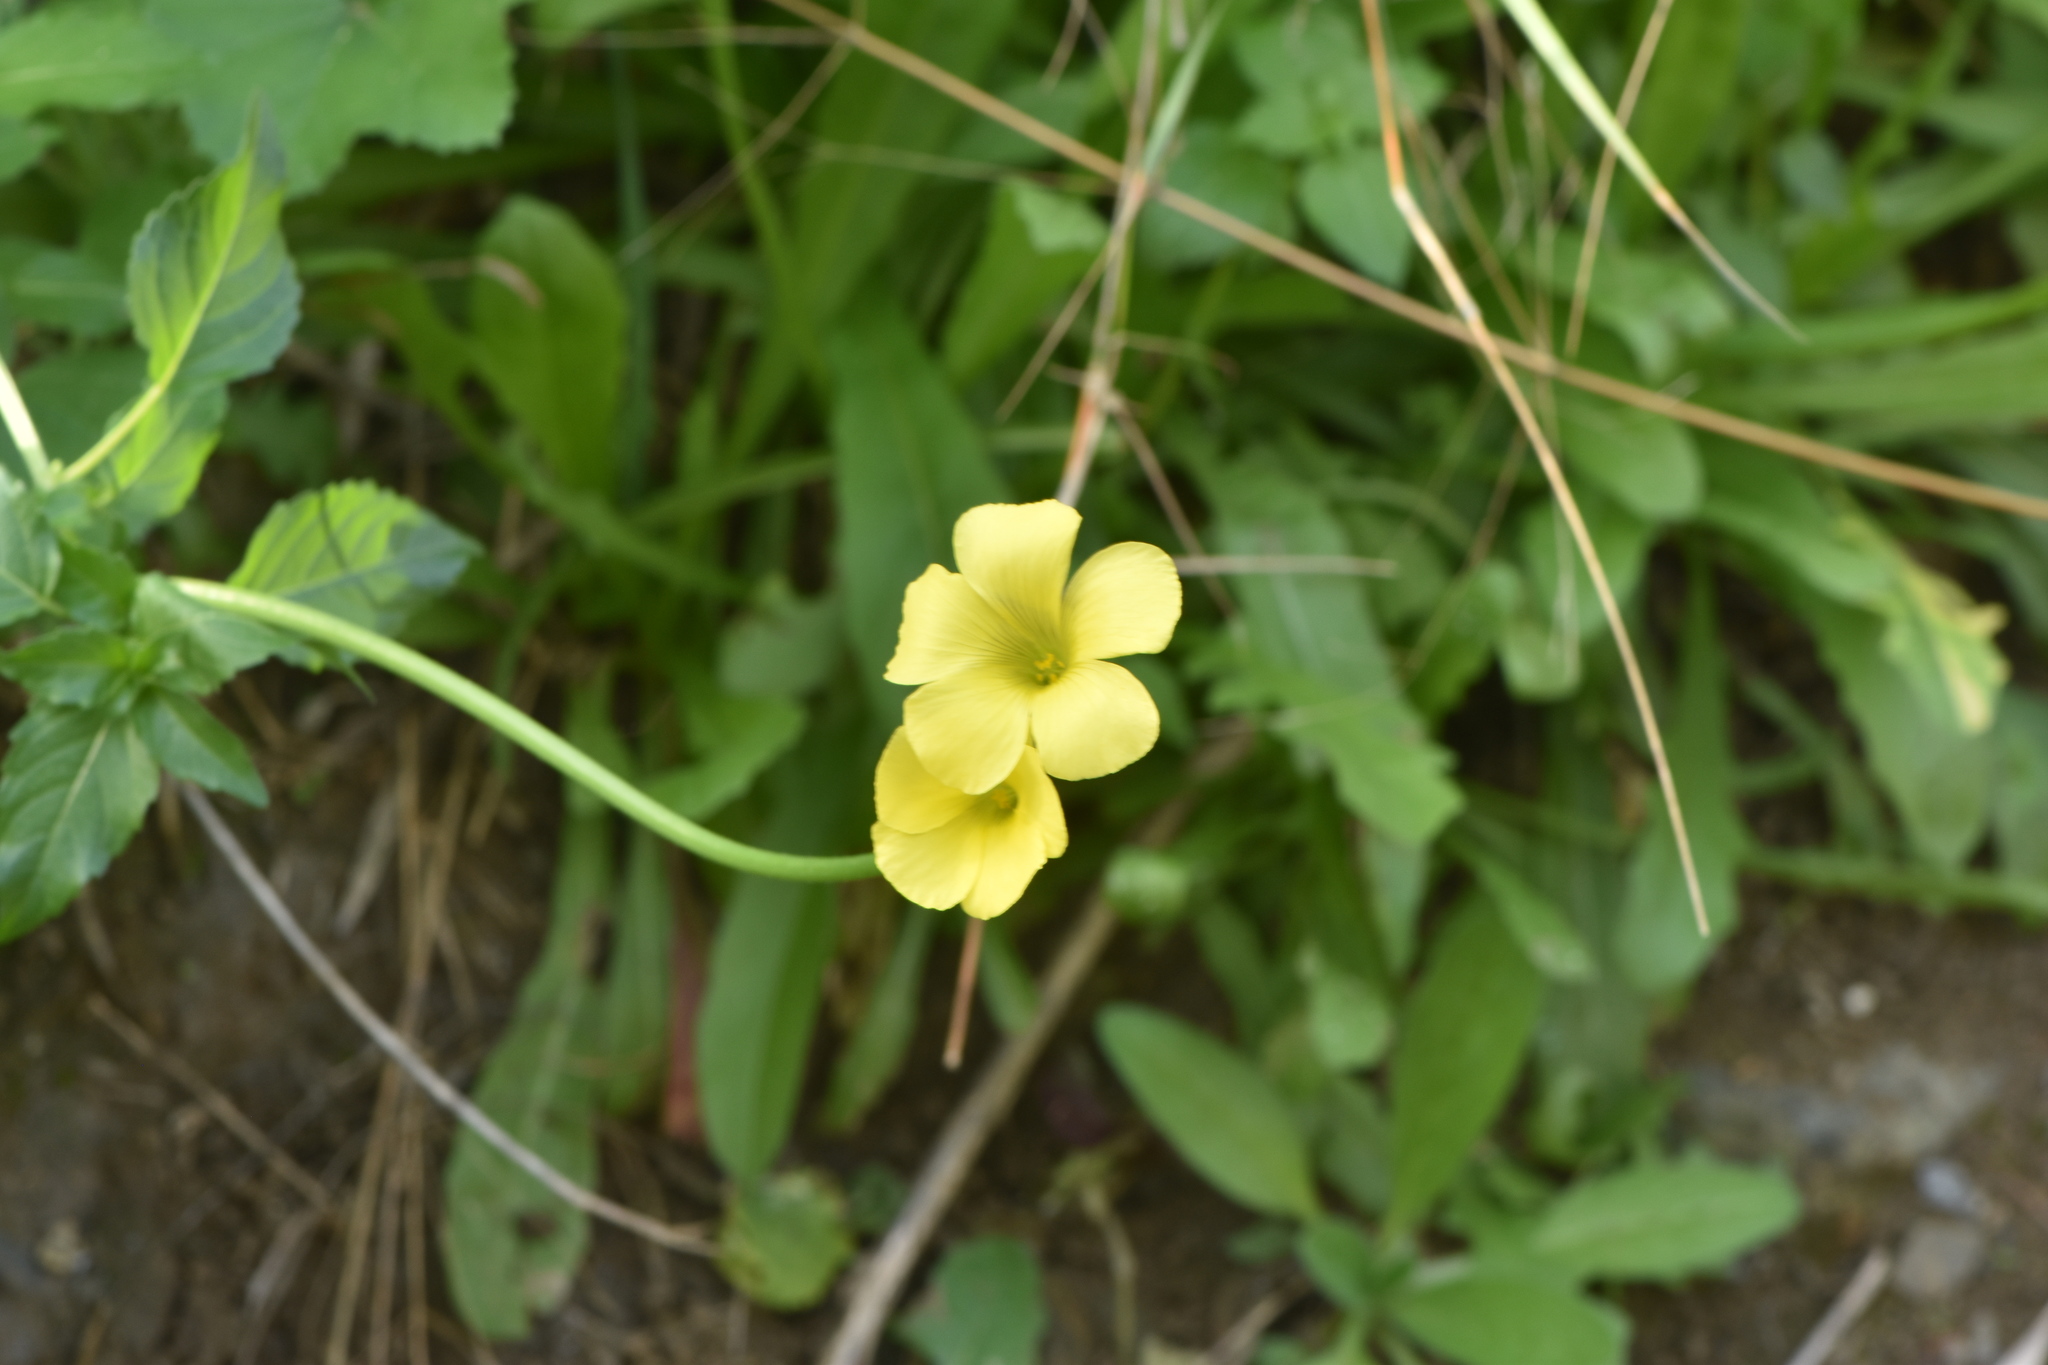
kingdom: Plantae
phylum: Tracheophyta
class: Magnoliopsida
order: Oxalidales
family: Oxalidaceae
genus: Oxalis
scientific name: Oxalis pes-caprae
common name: Bermuda-buttercup
